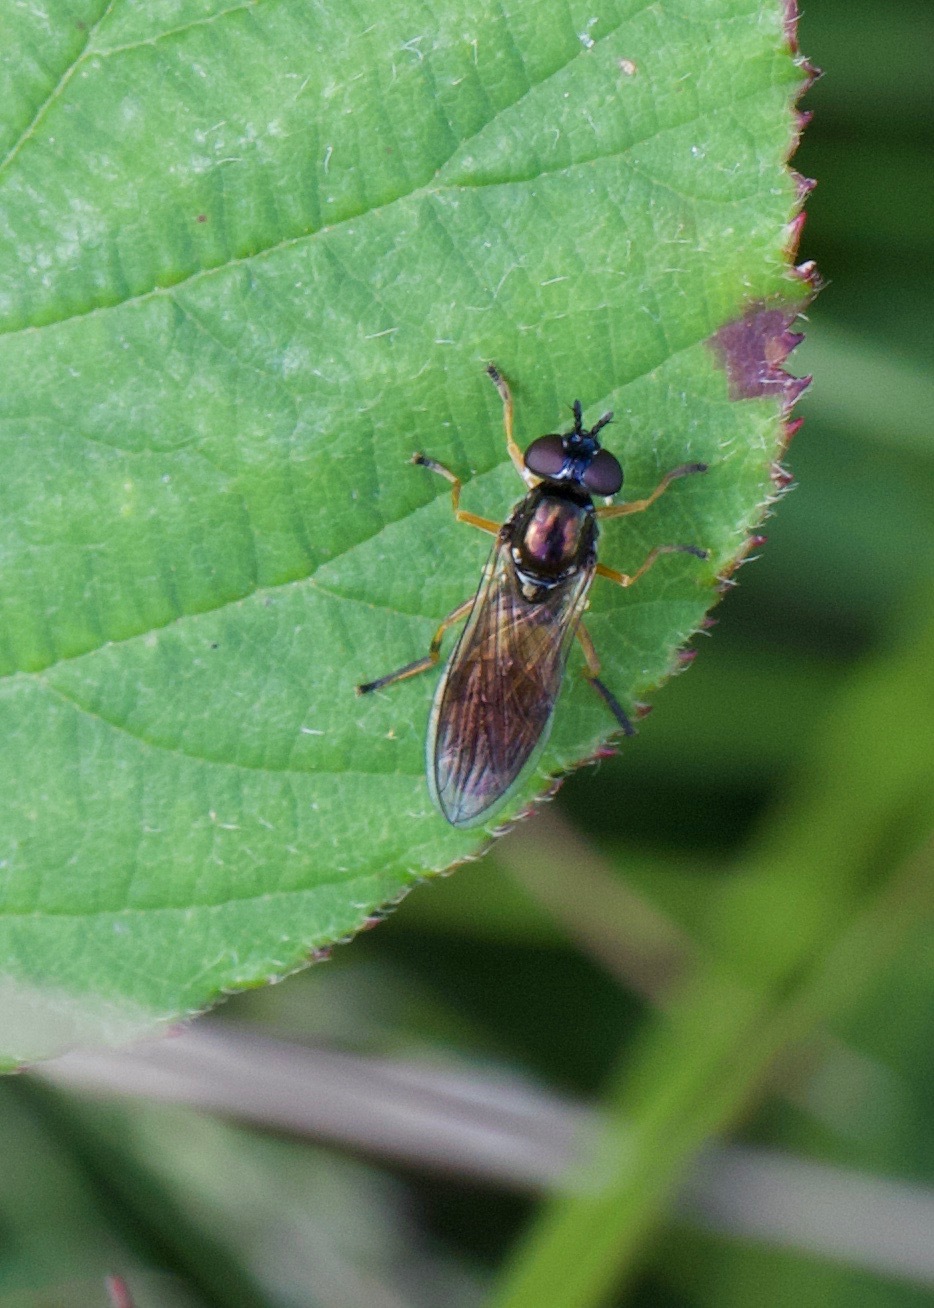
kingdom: Animalia
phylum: Arthropoda
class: Insecta
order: Diptera
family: Syrphidae
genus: Pyrophaena
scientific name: Pyrophaena granditarsa
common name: Hornhand sedgesitter
